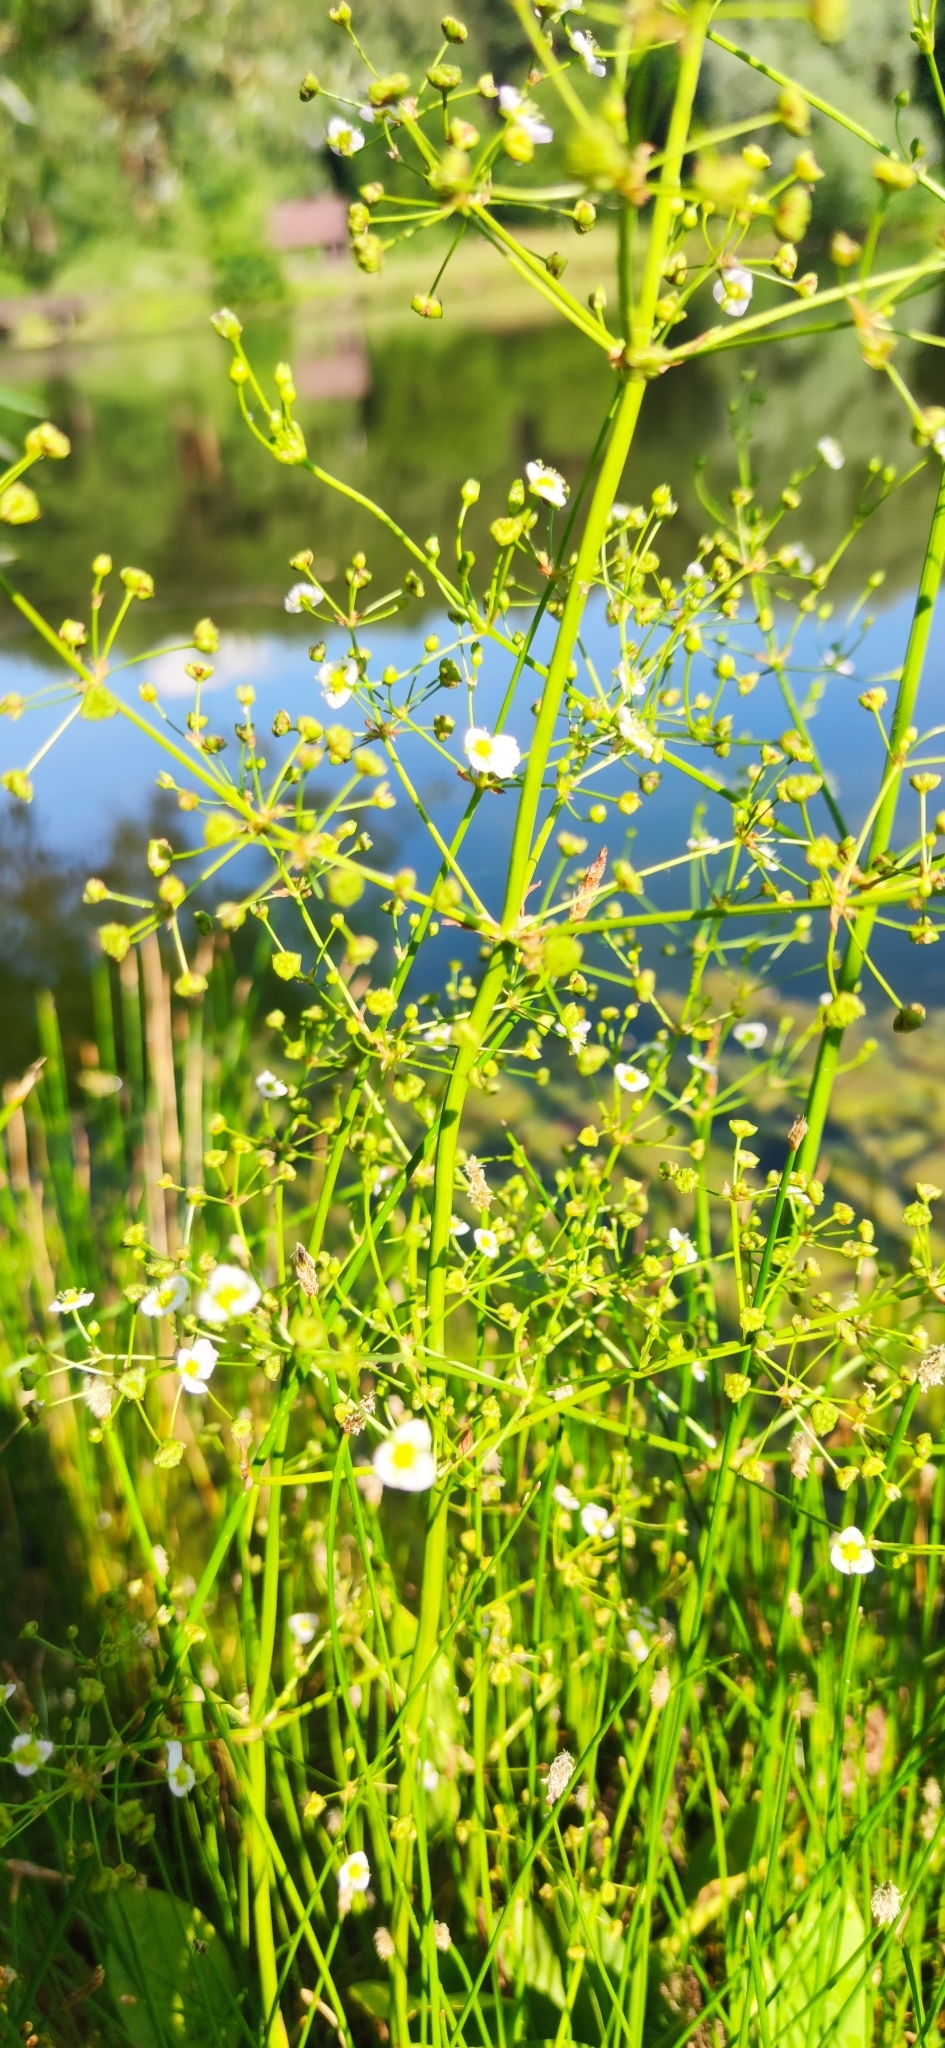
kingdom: Plantae
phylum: Tracheophyta
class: Liliopsida
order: Alismatales
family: Alismataceae
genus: Alisma
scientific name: Alisma plantago-aquatica
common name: Water-plantain
